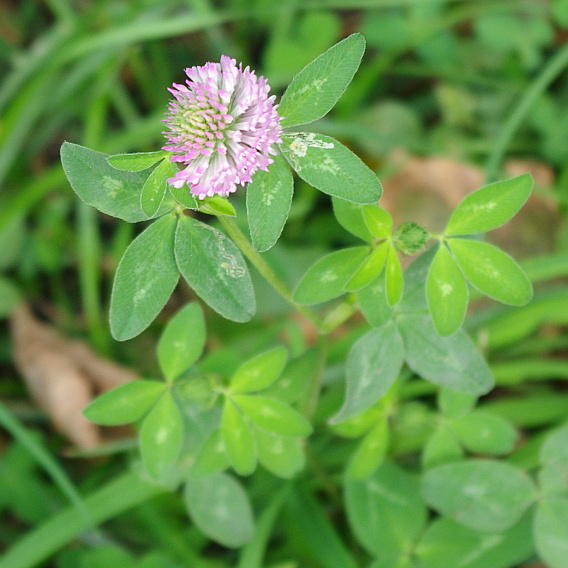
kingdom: Plantae
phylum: Tracheophyta
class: Magnoliopsida
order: Fabales
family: Fabaceae
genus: Trifolium
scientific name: Trifolium hybridum
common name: Alsike clover
